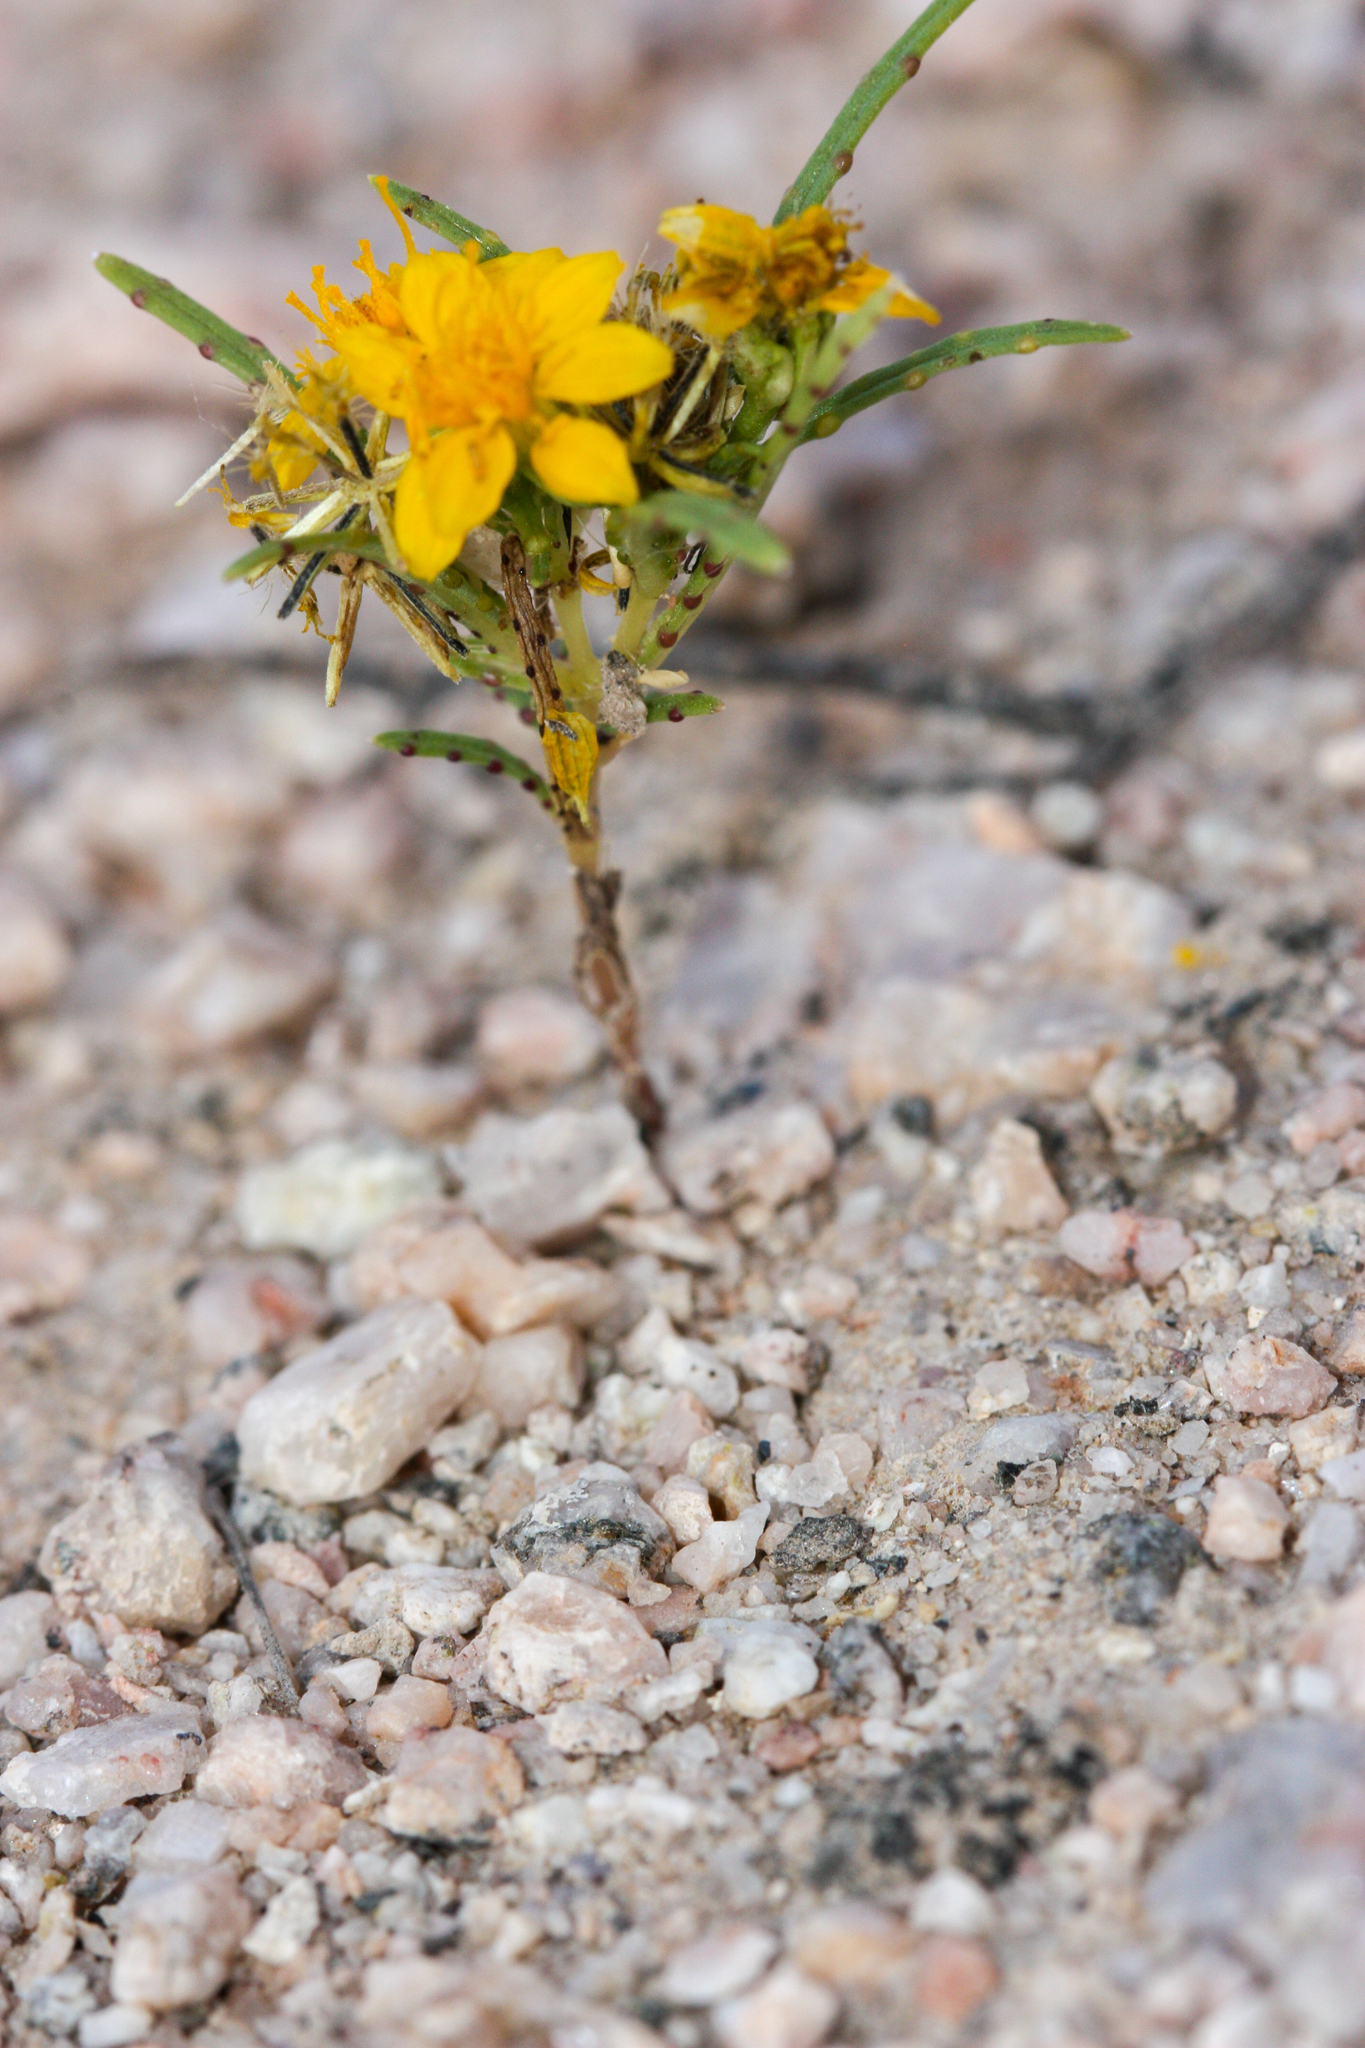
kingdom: Plantae
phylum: Tracheophyta
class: Magnoliopsida
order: Asterales
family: Asteraceae
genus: Pectis
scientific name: Pectis papposa
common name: Many-bristle chinchweed
